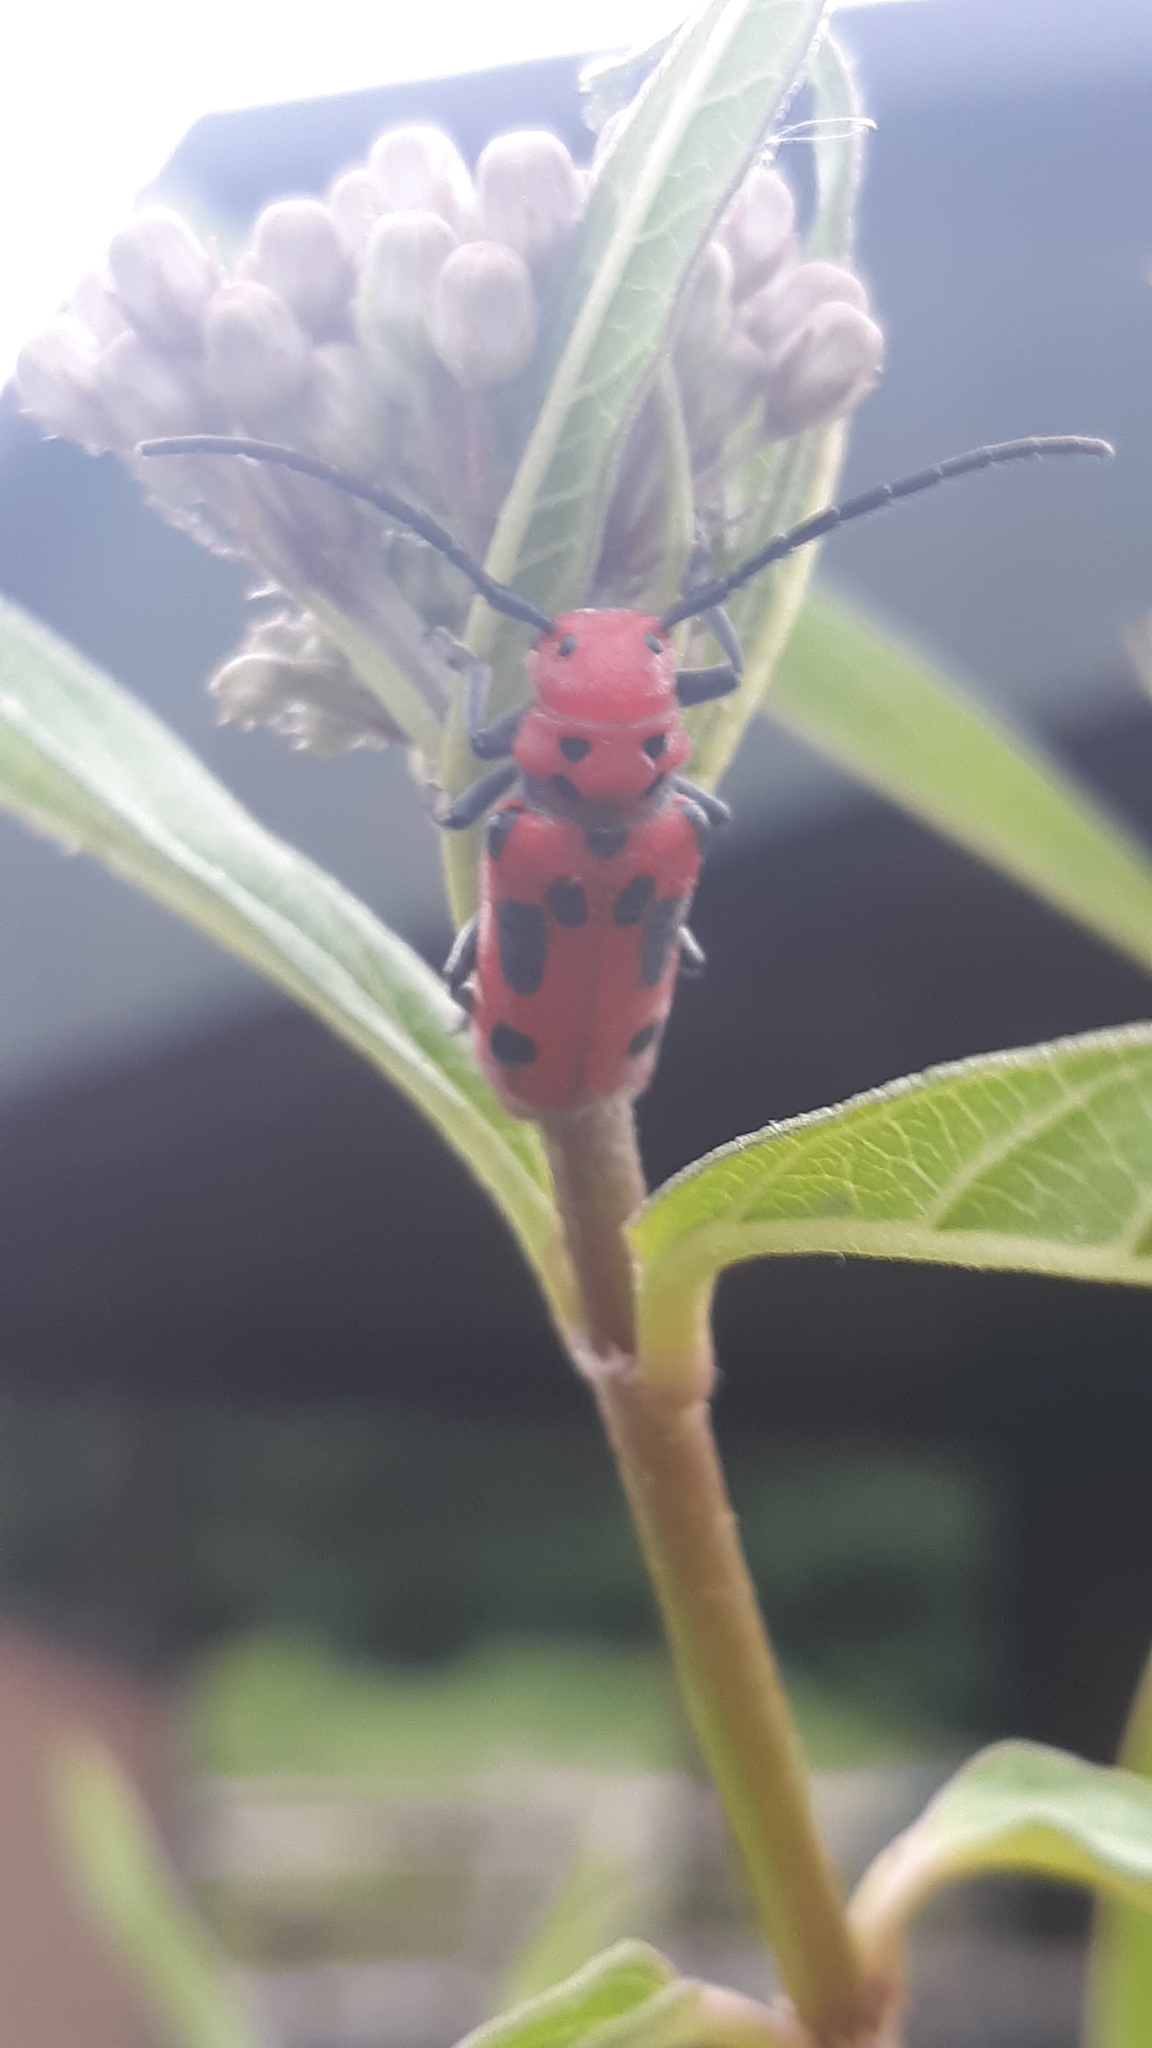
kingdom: Animalia
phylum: Arthropoda
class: Insecta
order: Coleoptera
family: Cerambycidae
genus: Tetraopes
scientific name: Tetraopes tetrophthalmus
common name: Red milkweed beetle
